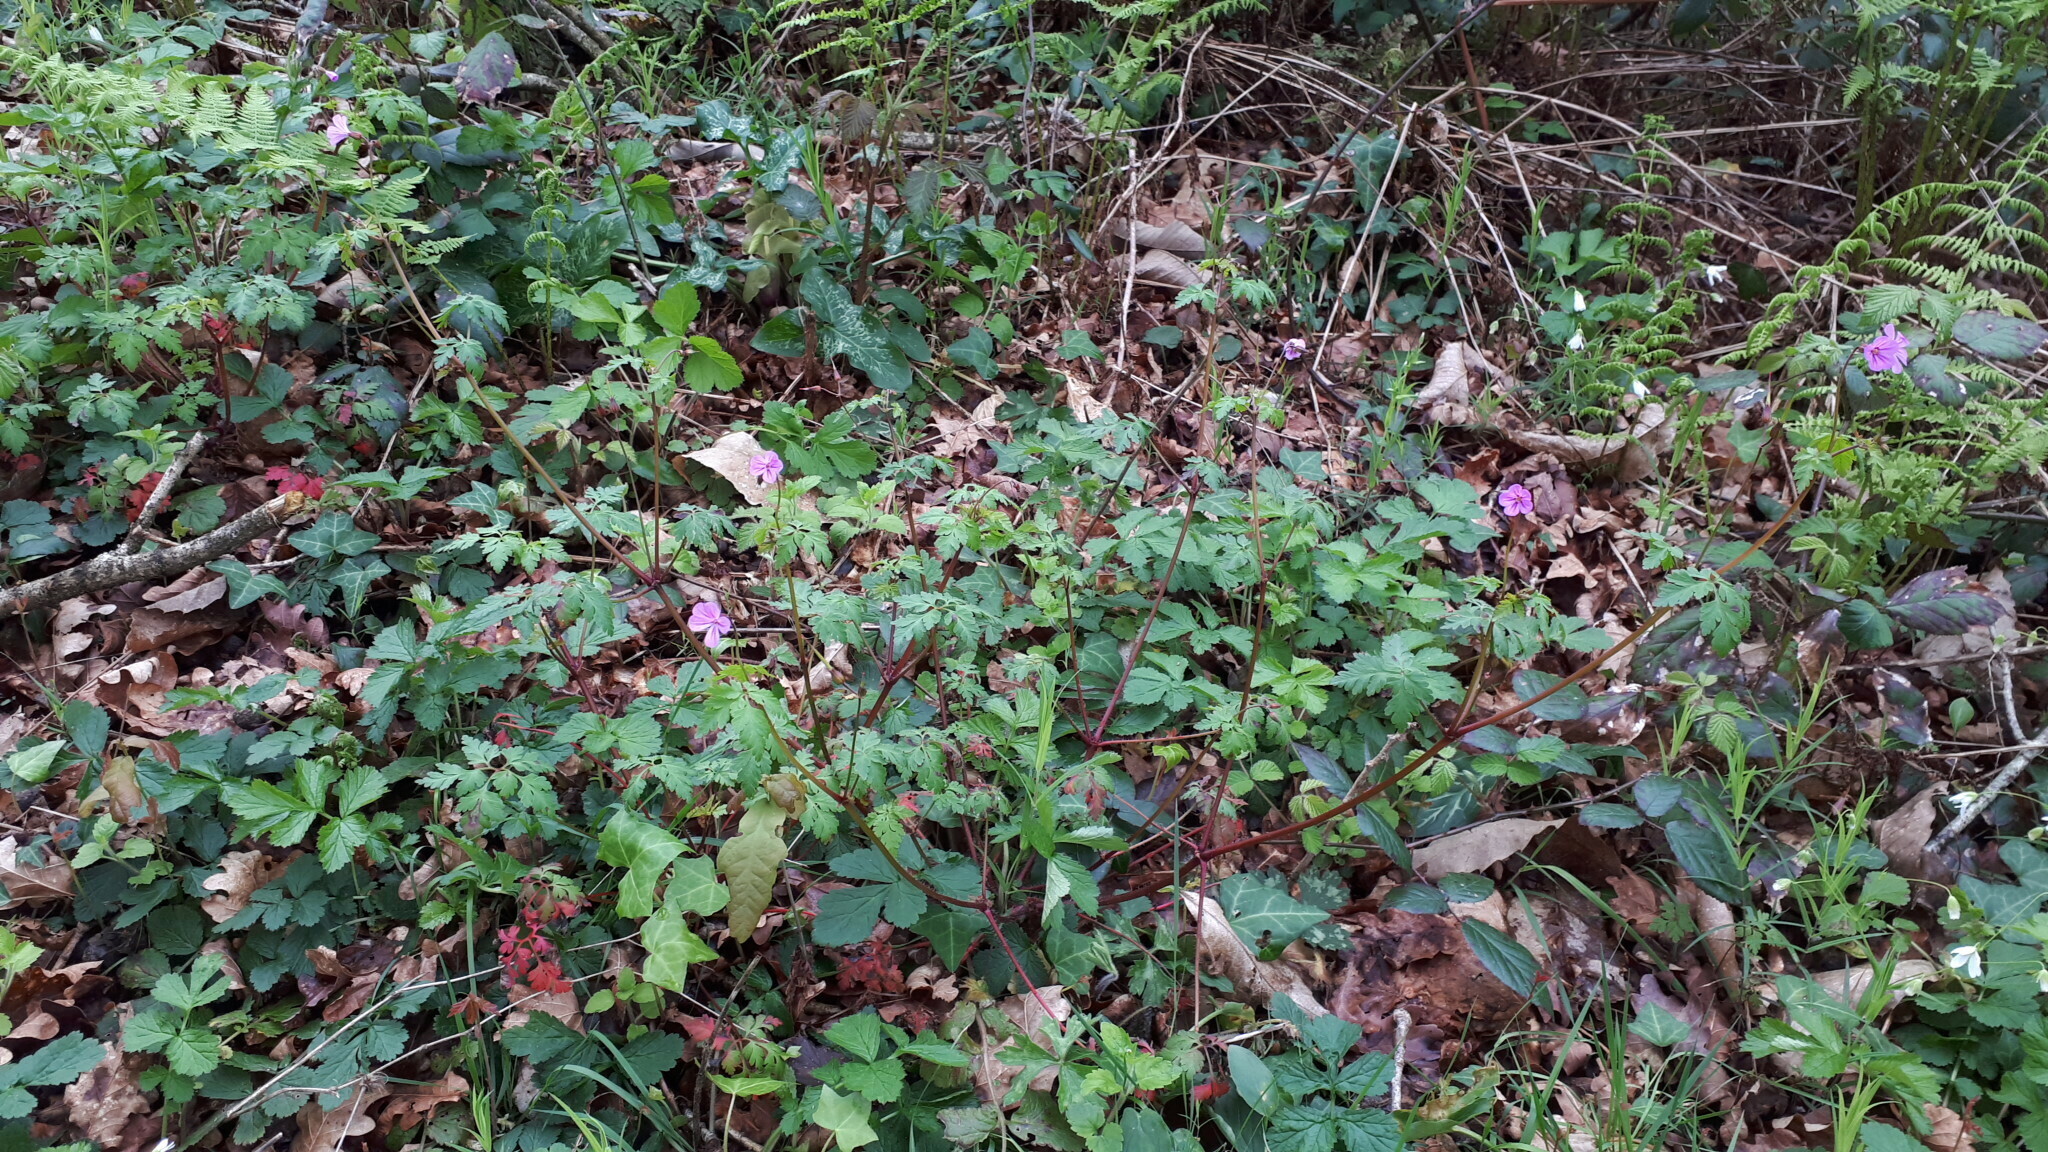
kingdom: Plantae
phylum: Tracheophyta
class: Magnoliopsida
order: Geraniales
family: Geraniaceae
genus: Geranium
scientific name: Geranium robertianum
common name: Herb-robert
